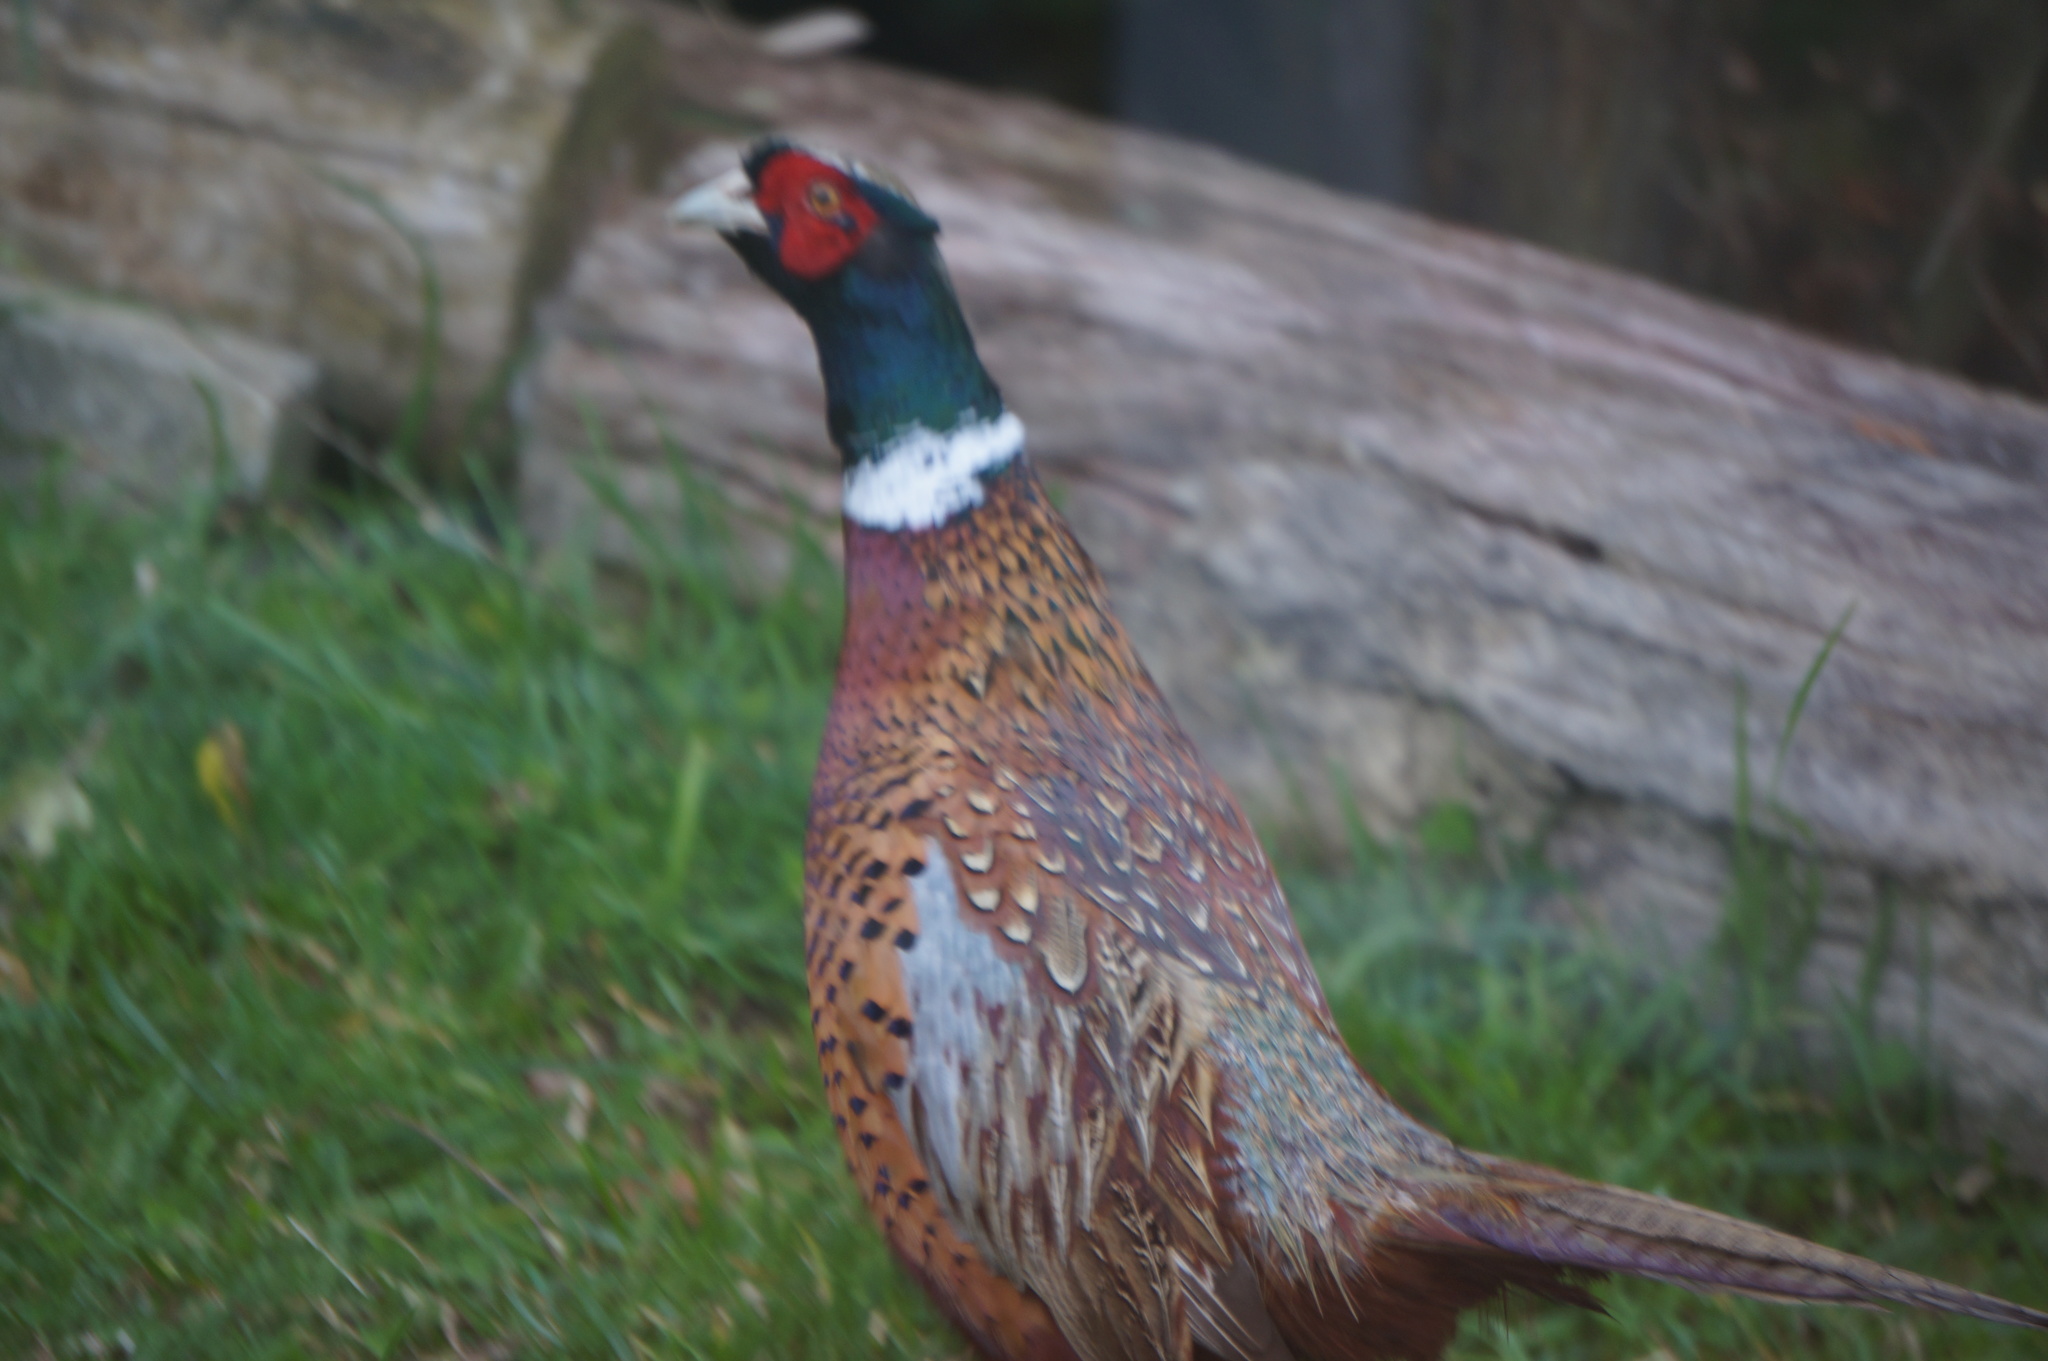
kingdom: Animalia
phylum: Chordata
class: Aves
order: Galliformes
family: Phasianidae
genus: Phasianus
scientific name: Phasianus colchicus
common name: Common pheasant
